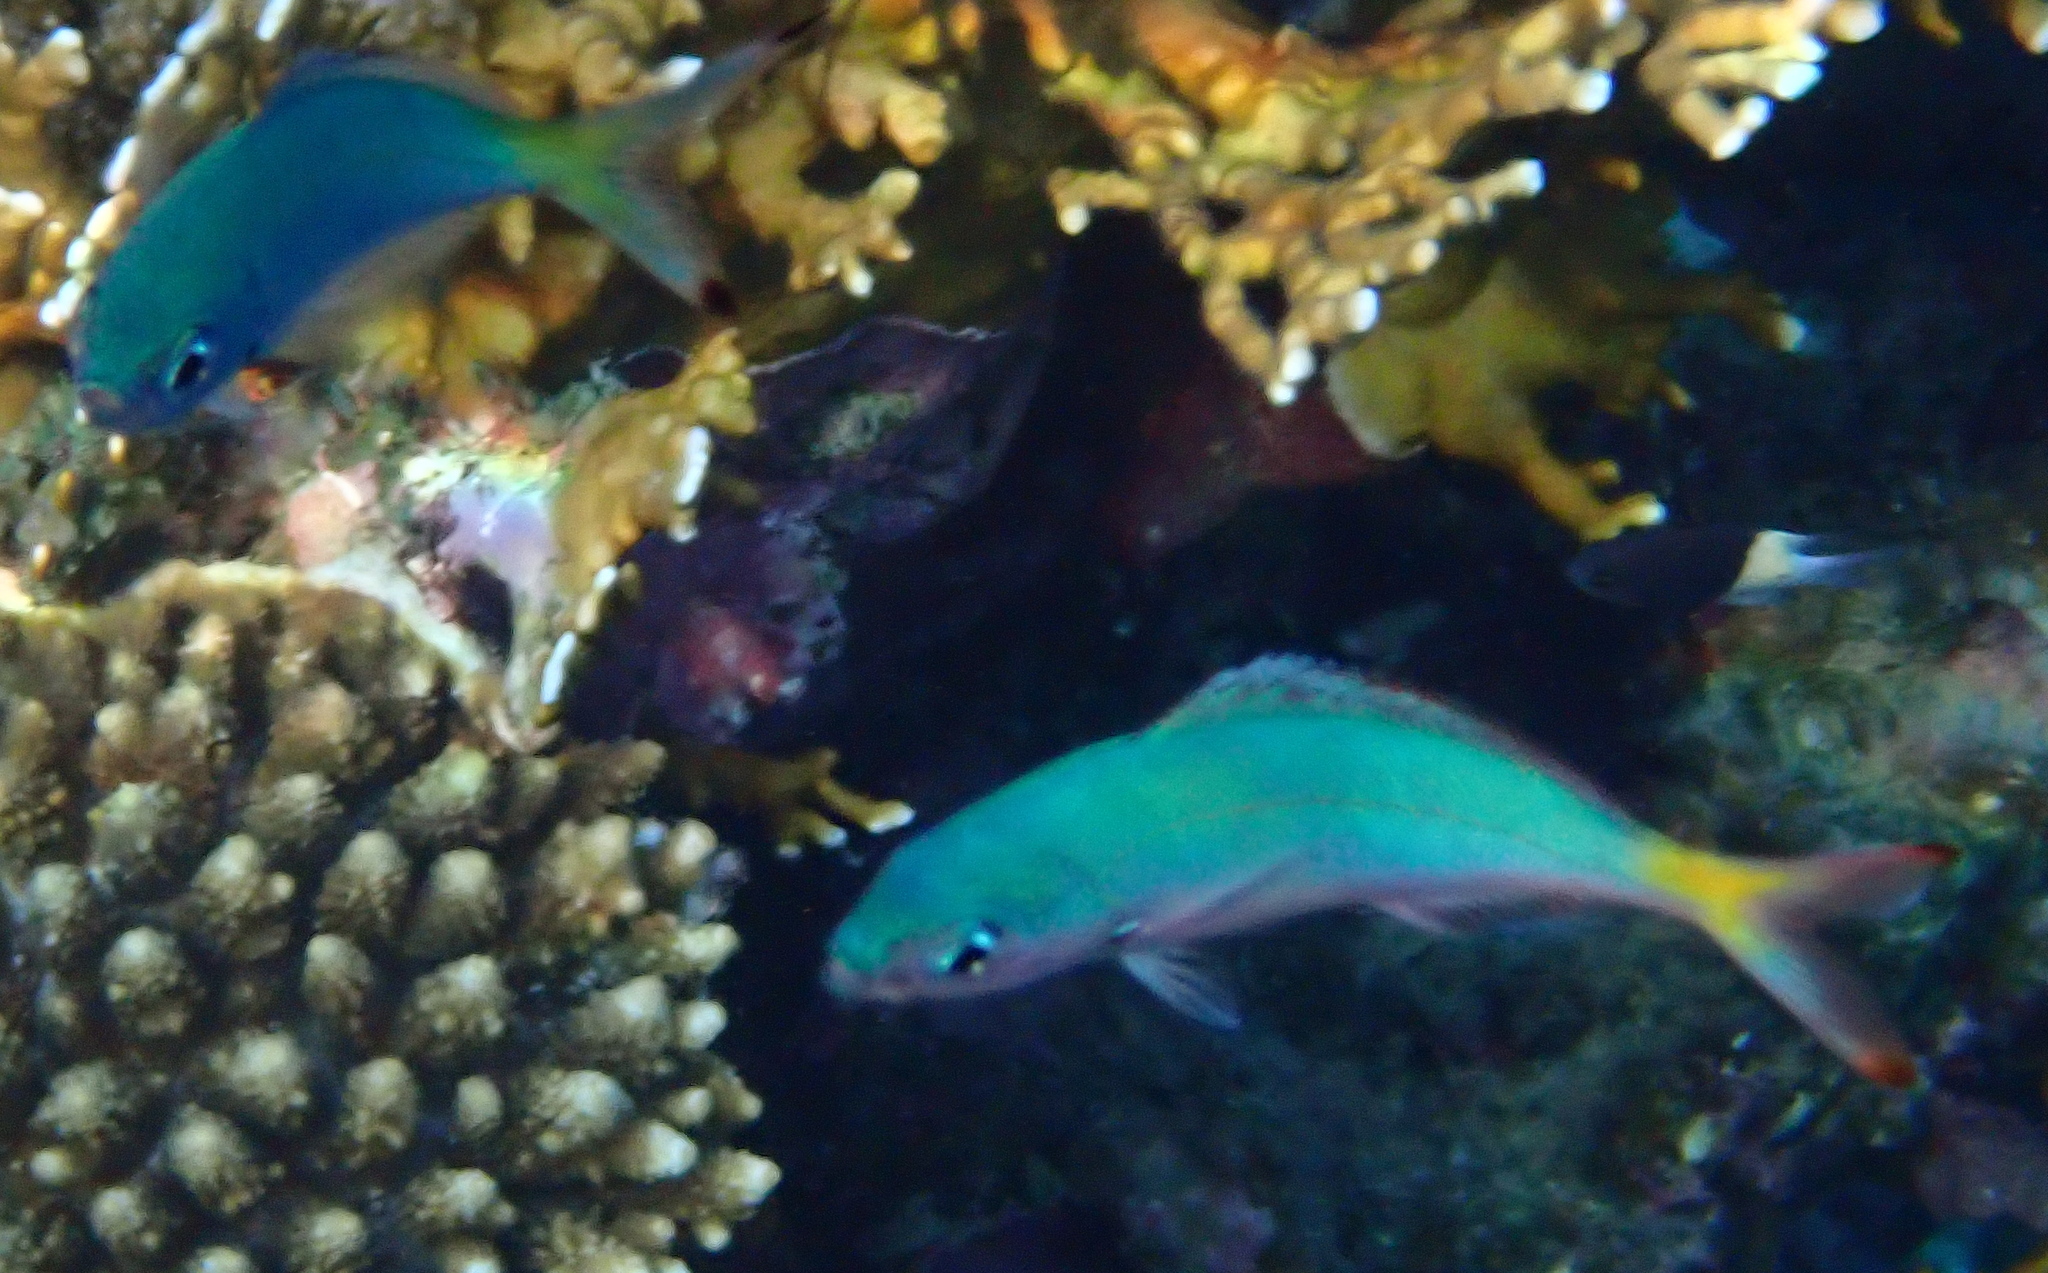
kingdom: Animalia
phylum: Chordata
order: Perciformes
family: Caesionidae
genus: Caesio
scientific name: Caesio lunaris
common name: Blue fusilier
